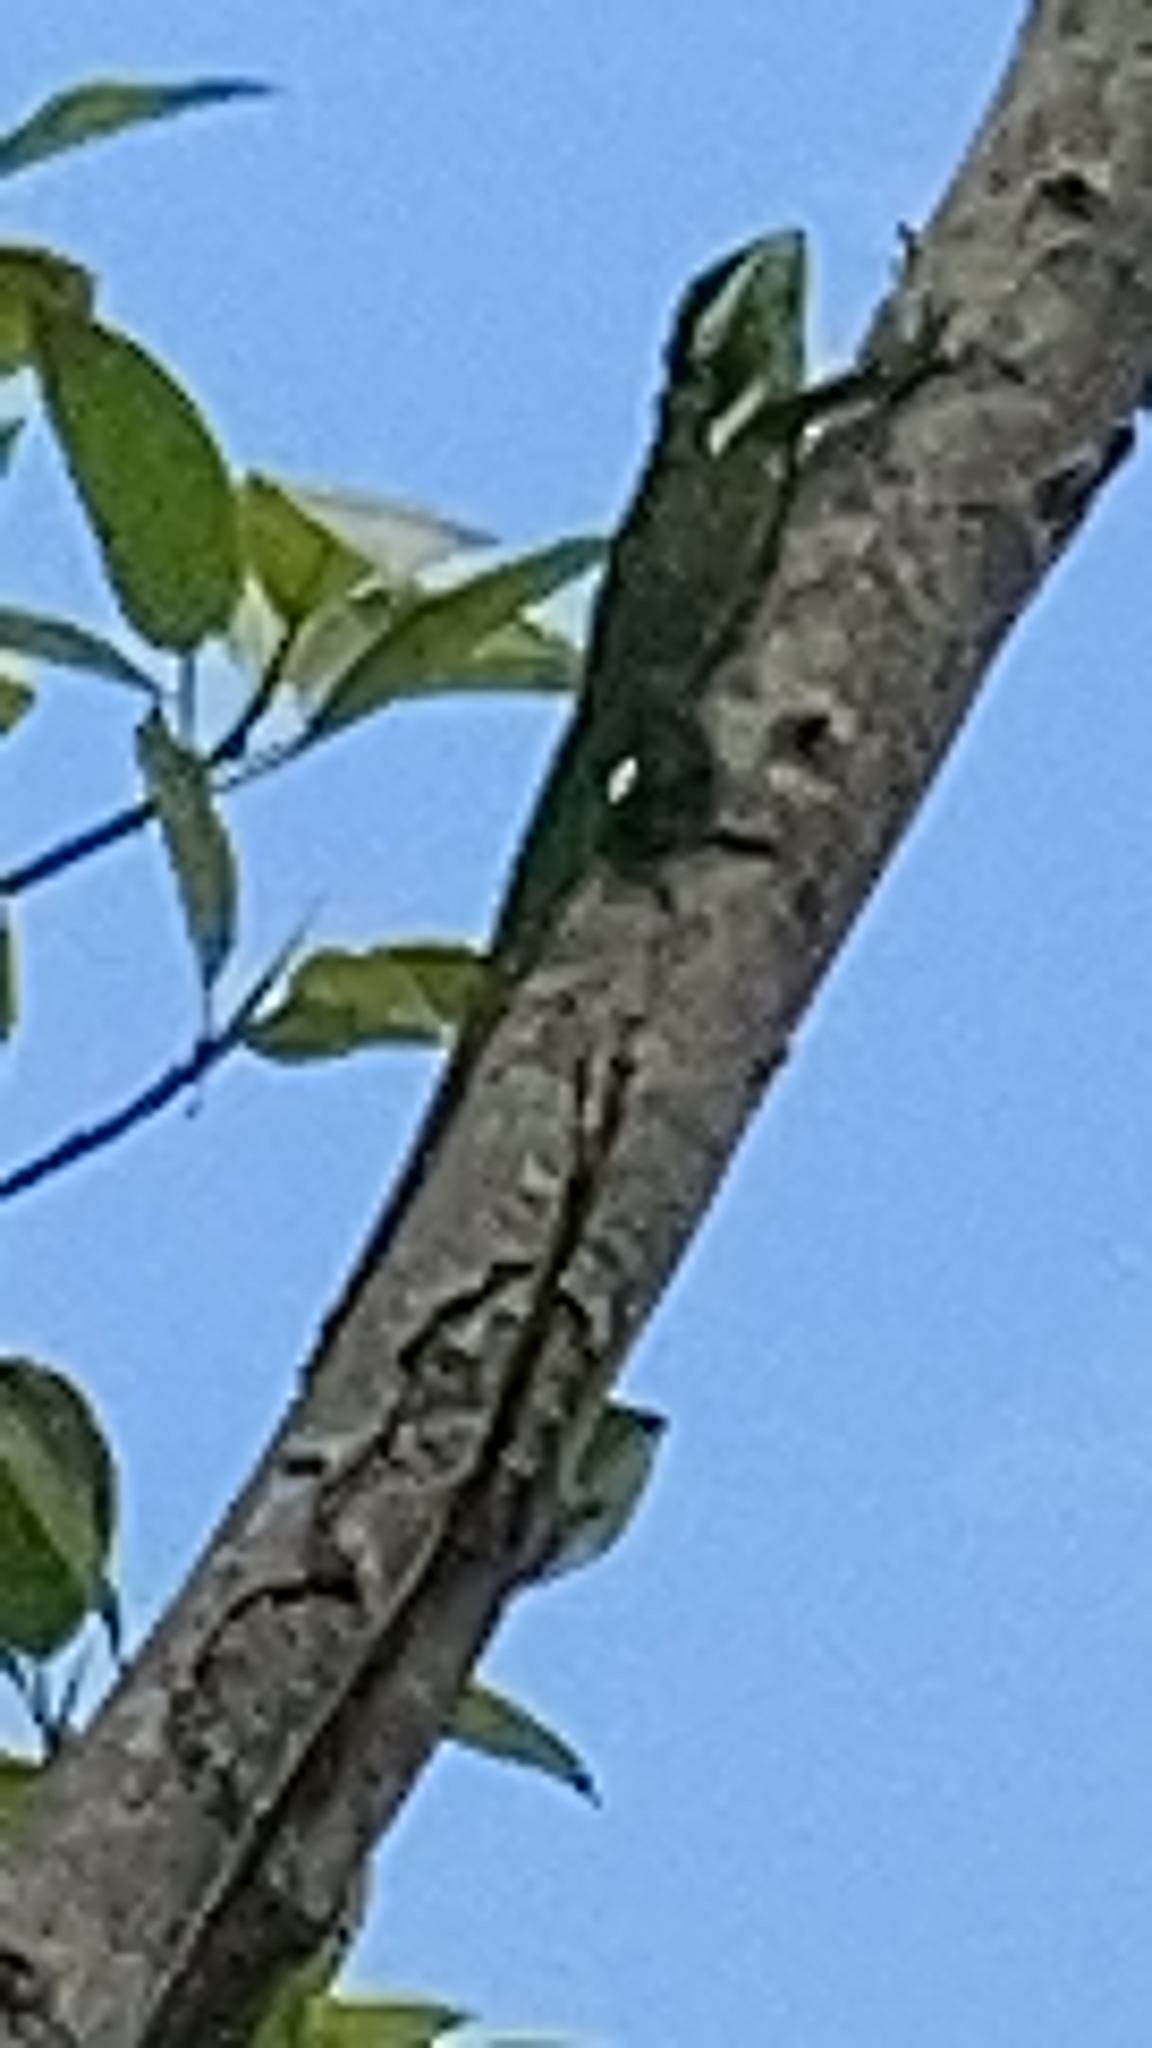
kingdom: Animalia
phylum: Chordata
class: Squamata
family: Dactyloidae
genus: Anolis
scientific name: Anolis equestris
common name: Knight anole
